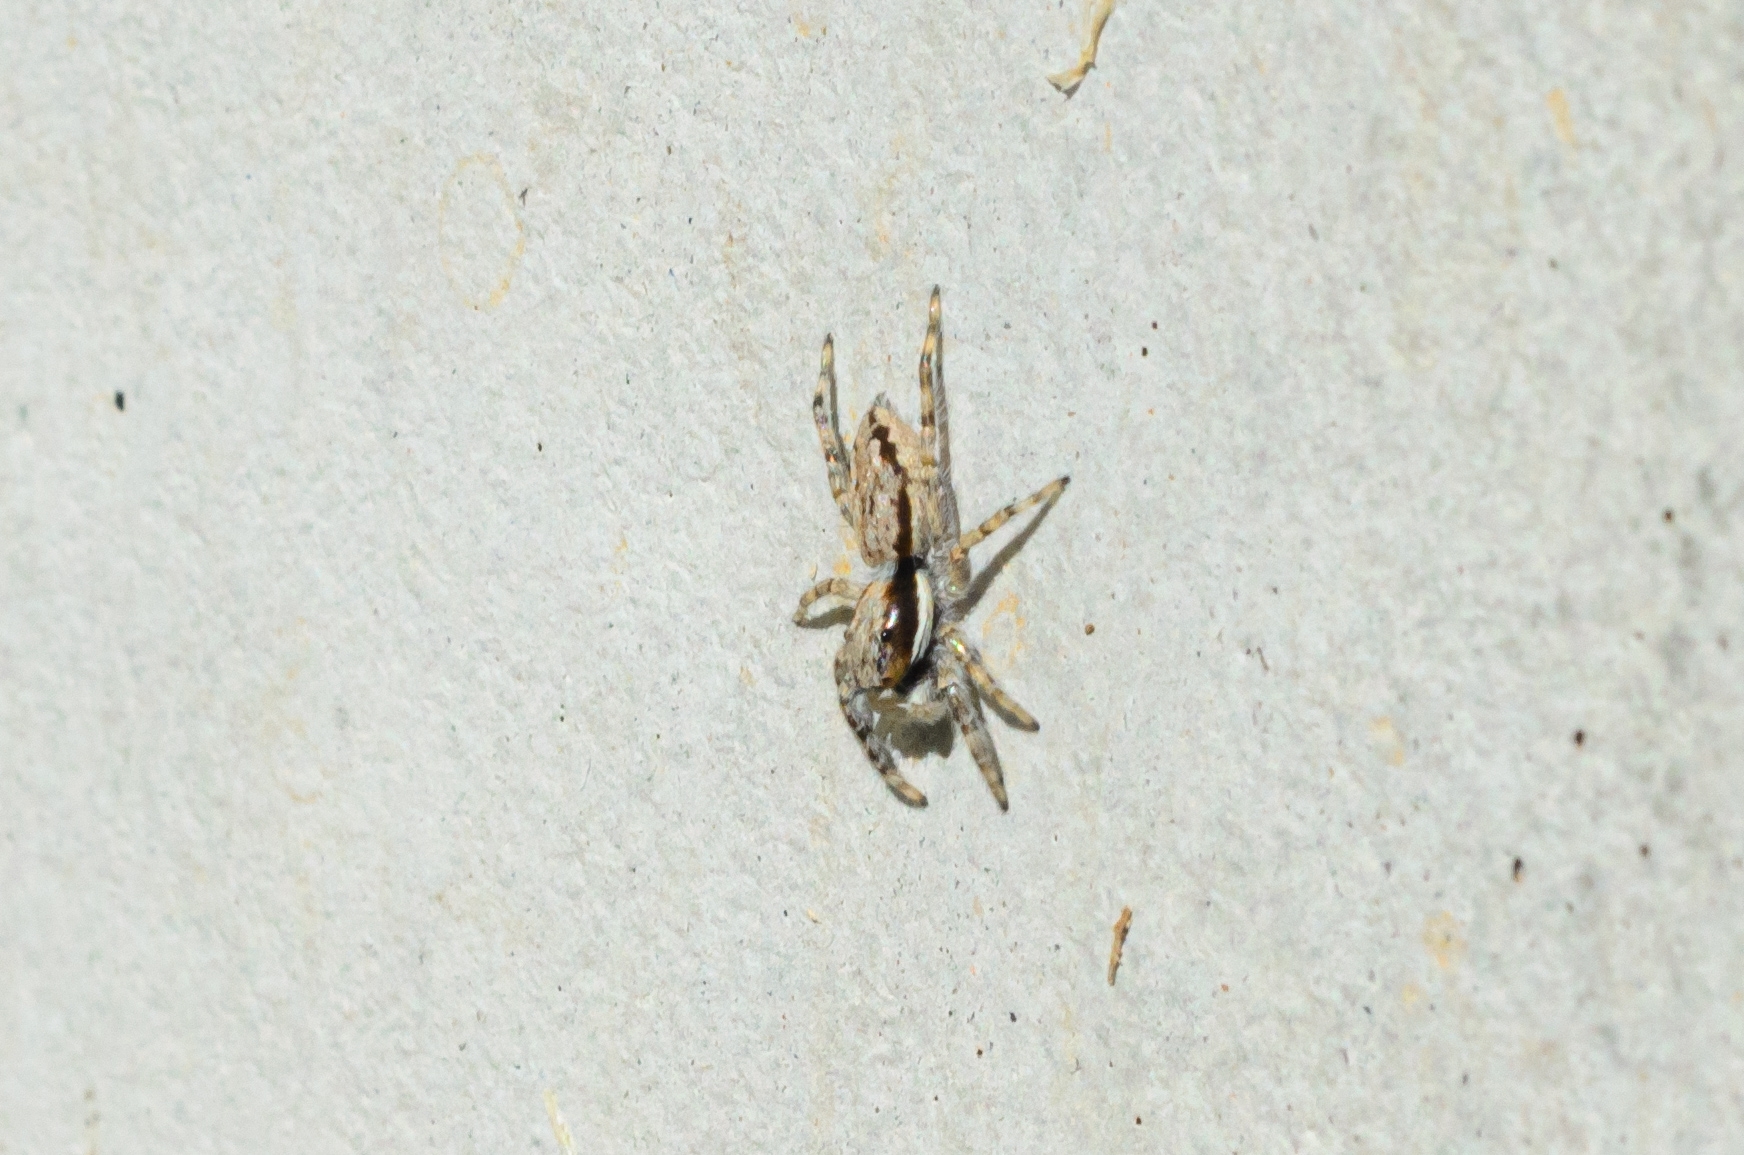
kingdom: Animalia
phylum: Arthropoda
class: Arachnida
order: Araneae
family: Salticidae
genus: Menemerus
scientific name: Menemerus bivittatus
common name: Gray wall jumper
